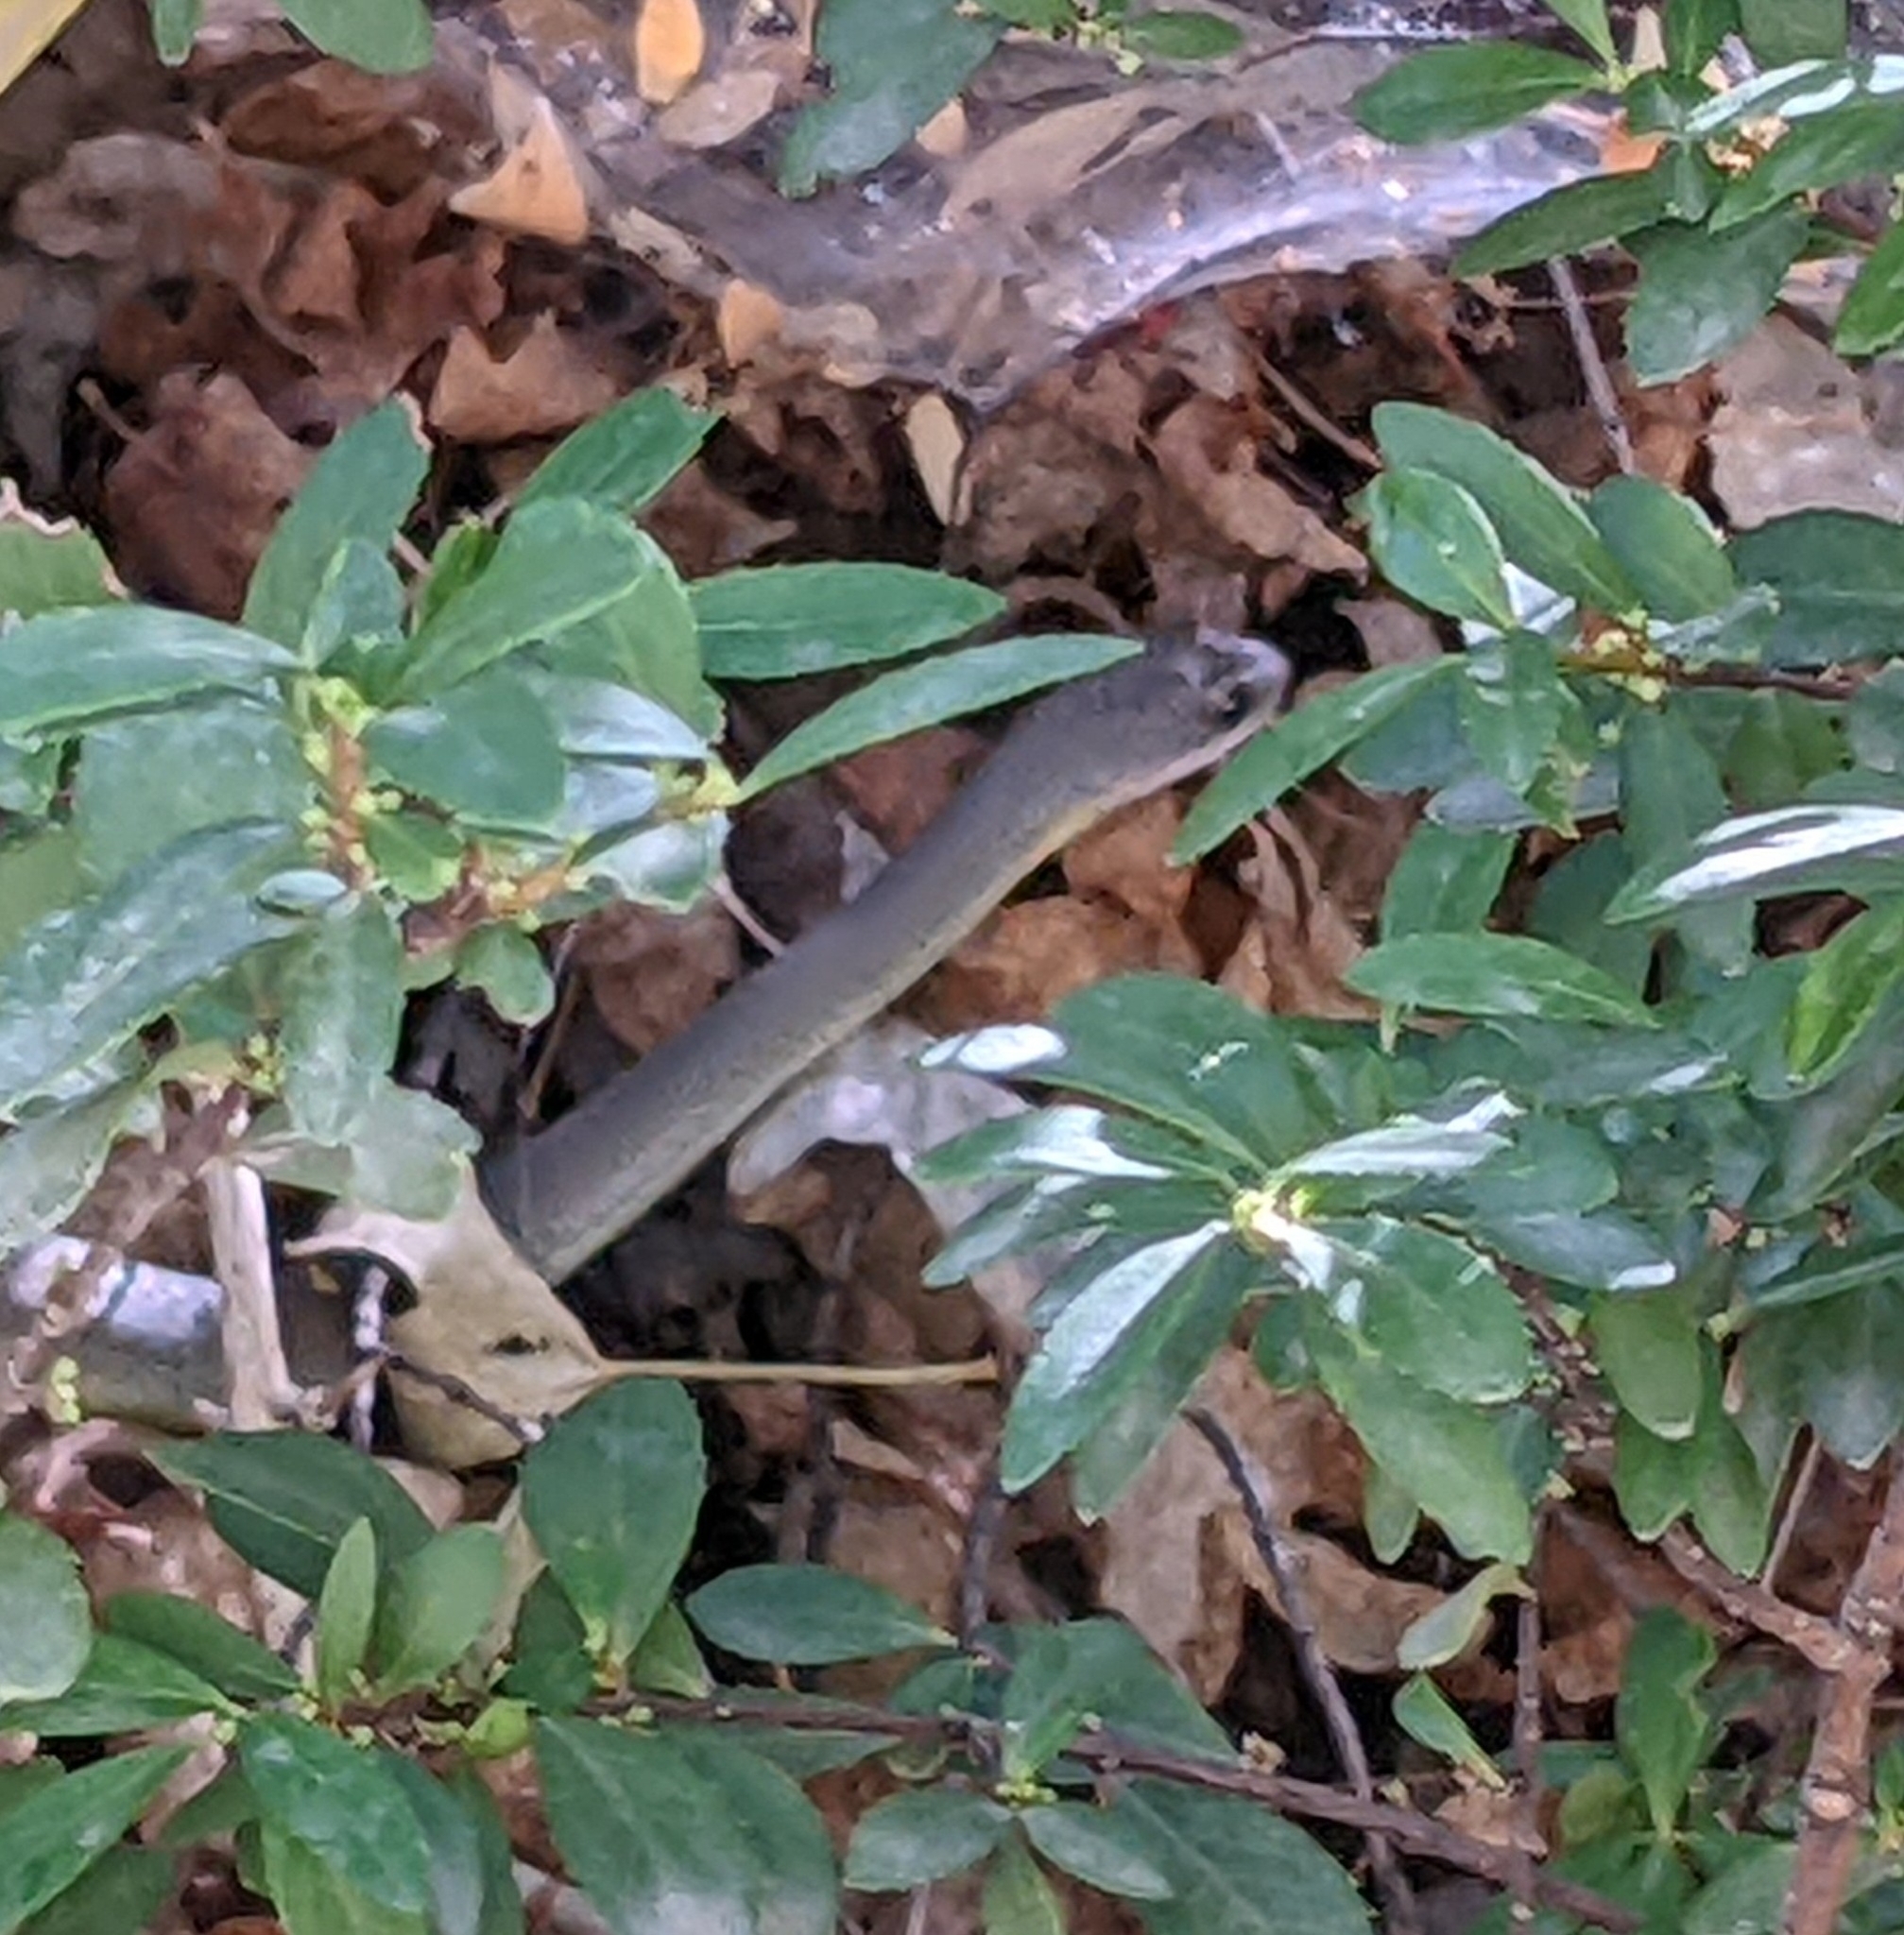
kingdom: Animalia
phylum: Chordata
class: Squamata
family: Colubridae
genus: Coluber
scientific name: Coluber constrictor
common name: Eastern racer
